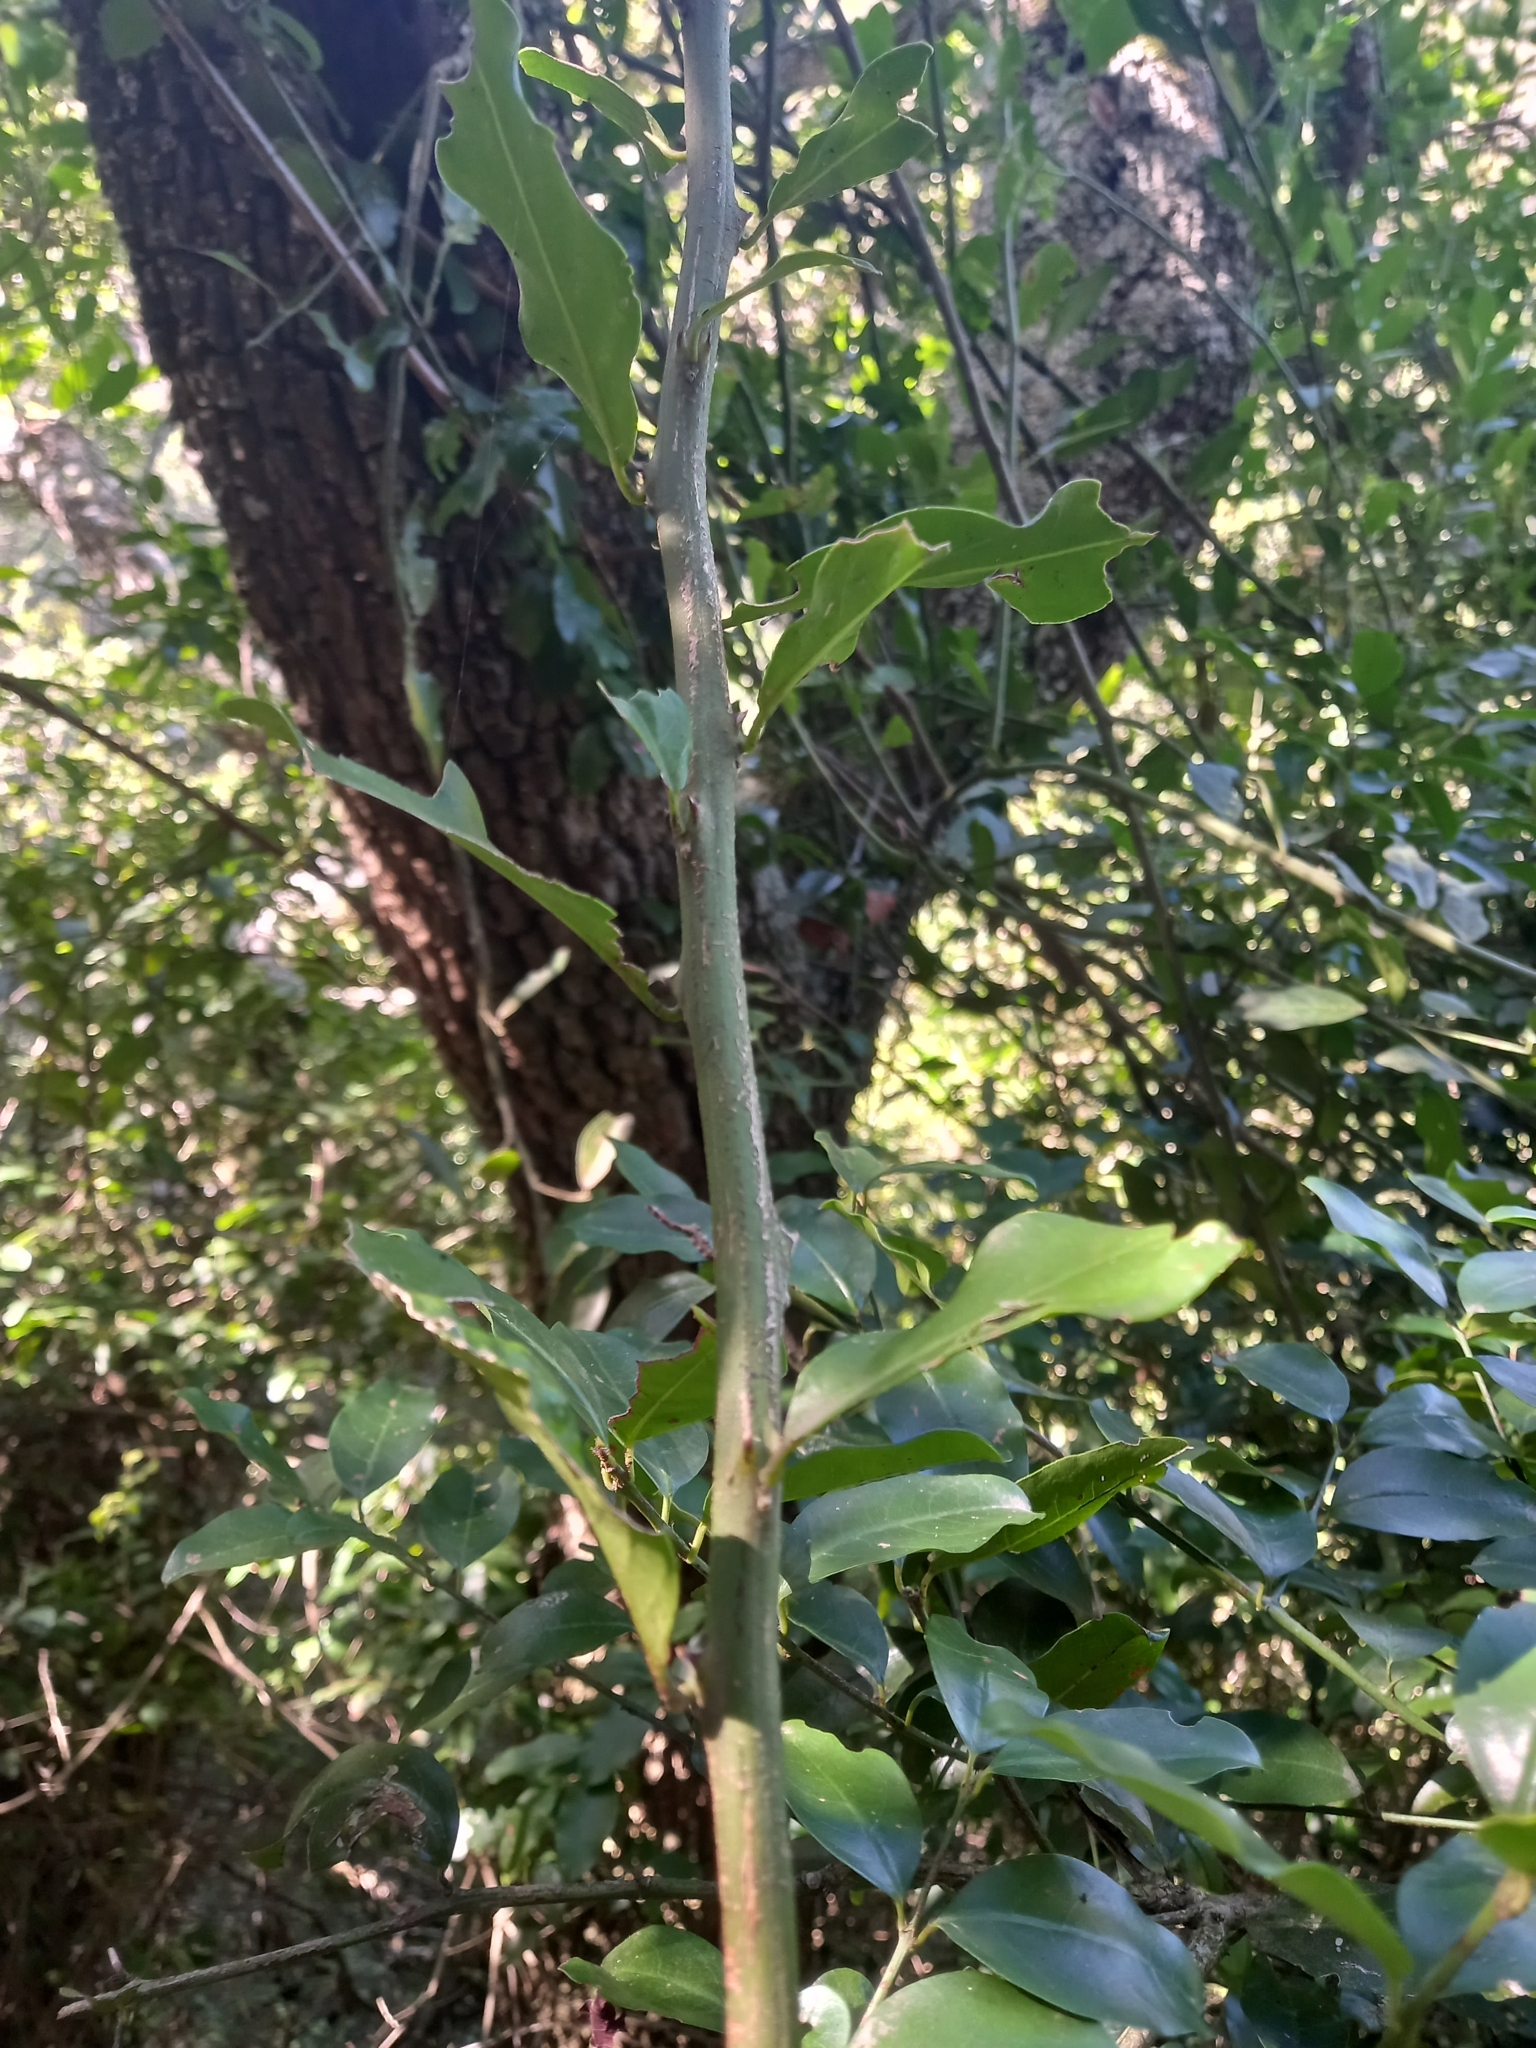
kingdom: Plantae
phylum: Tracheophyta
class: Magnoliopsida
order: Brassicales
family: Capparaceae
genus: Capparis
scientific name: Capparis sepiaria
